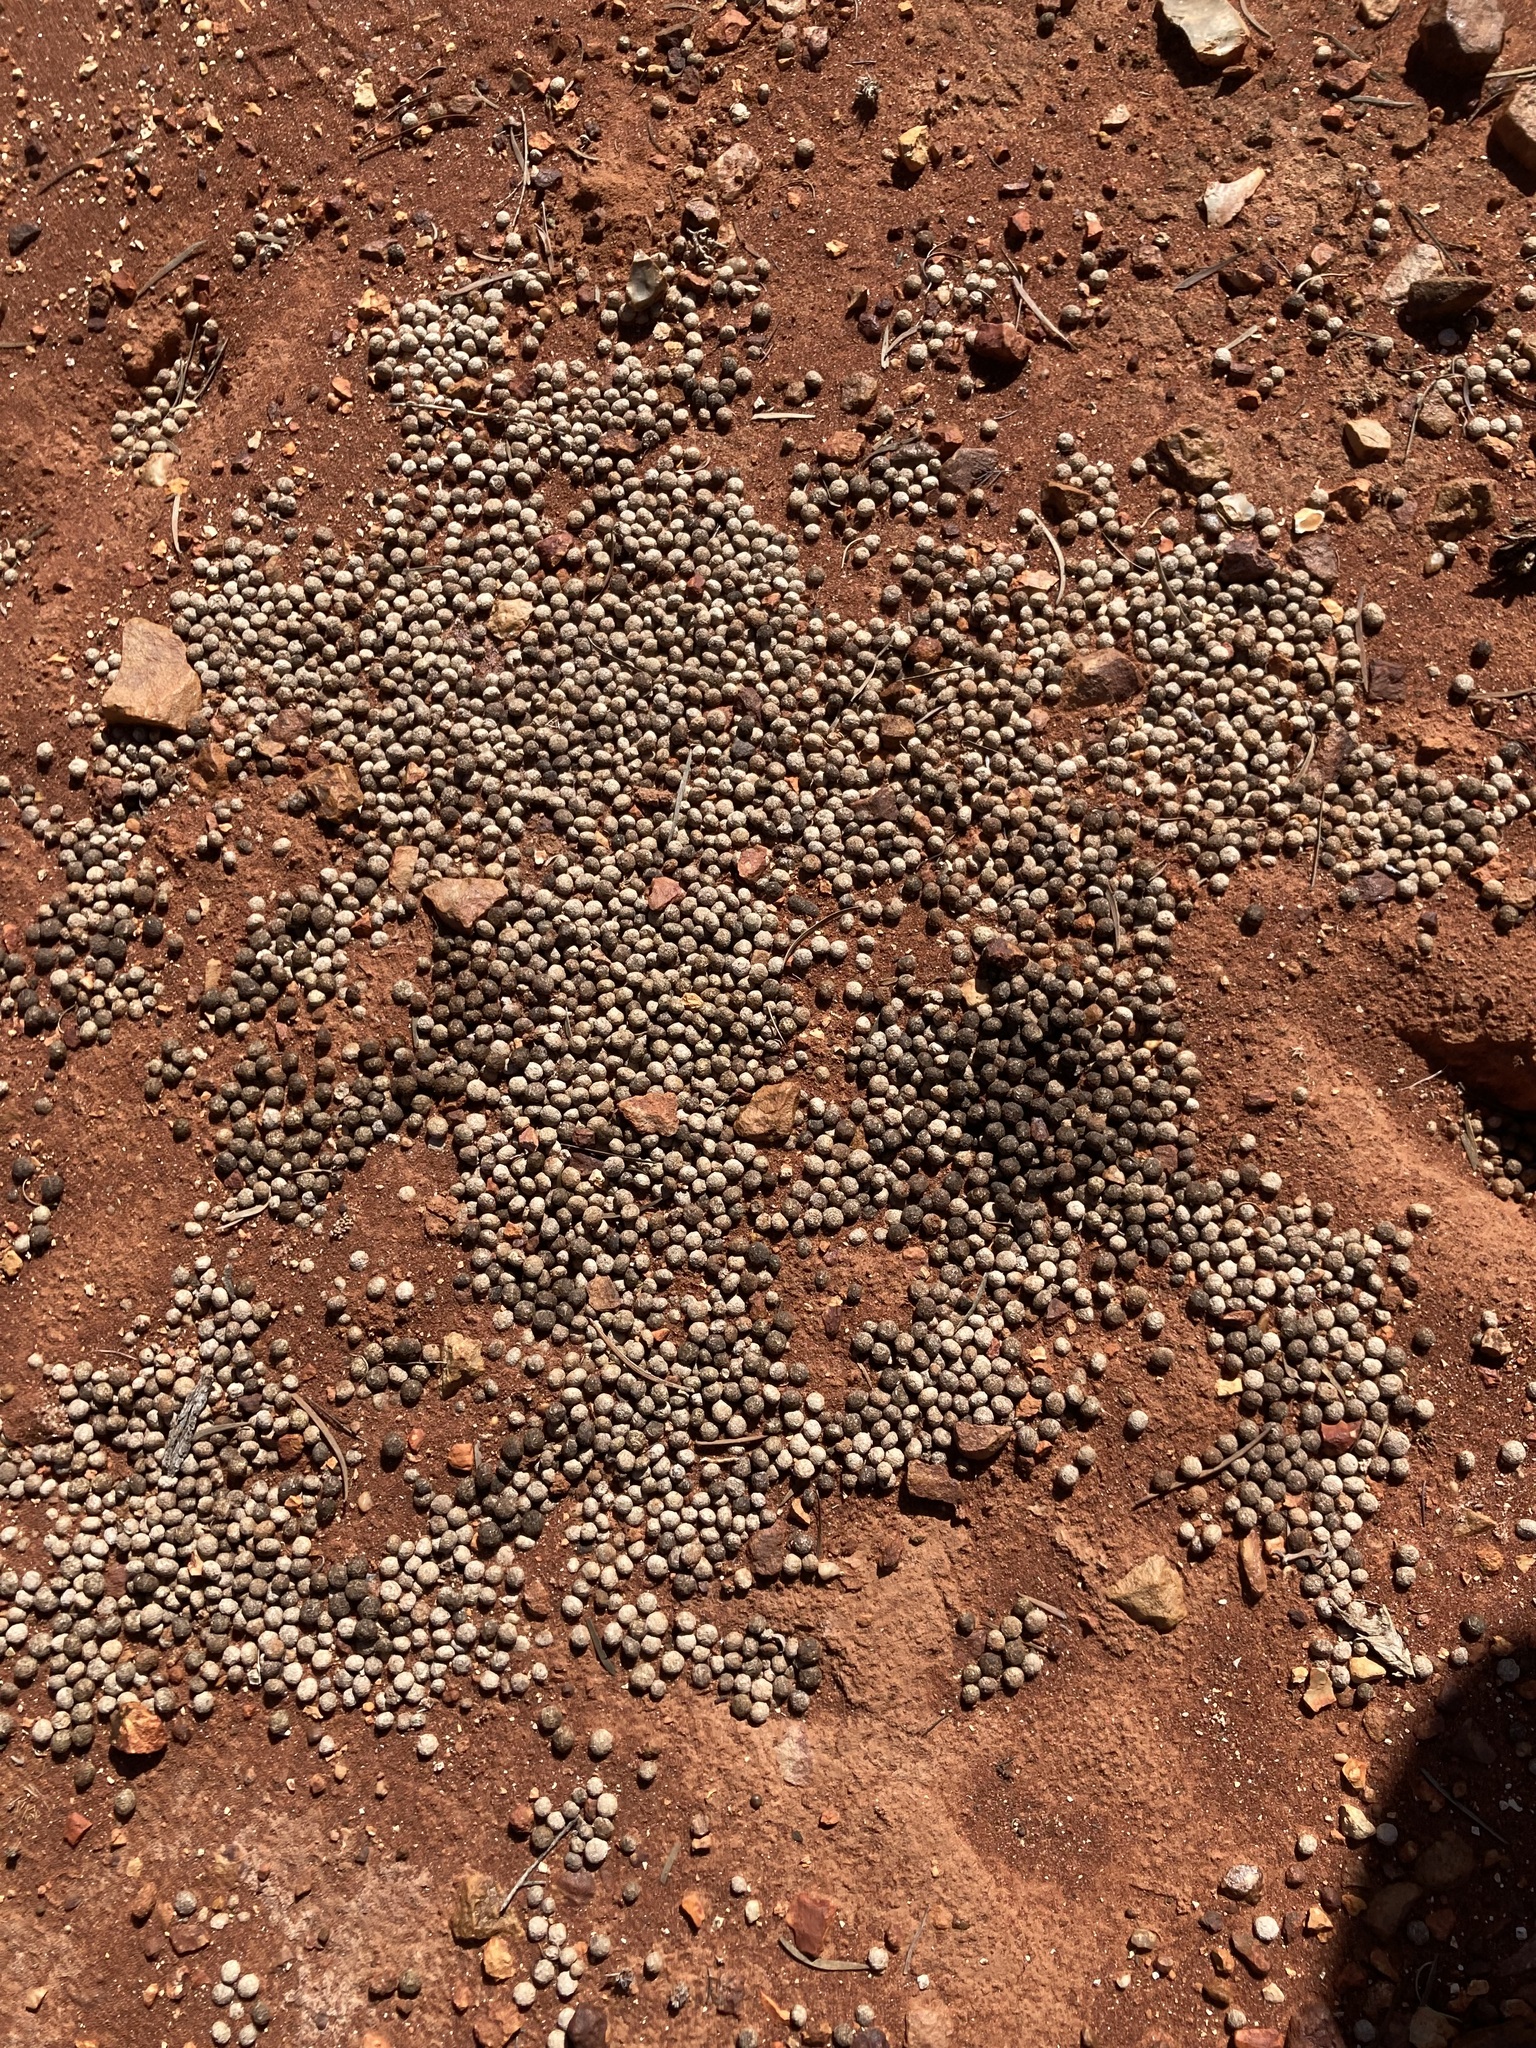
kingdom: Animalia
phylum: Chordata
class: Mammalia
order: Lagomorpha
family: Leporidae
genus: Oryctolagus
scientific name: Oryctolagus cuniculus
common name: European rabbit
